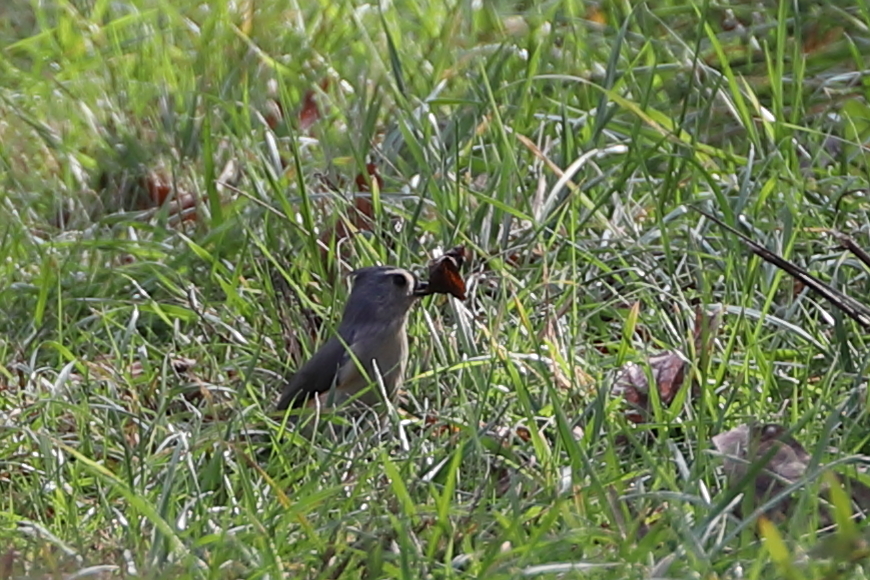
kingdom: Animalia
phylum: Chordata
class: Aves
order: Passeriformes
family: Paridae
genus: Baeolophus
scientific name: Baeolophus bicolor
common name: Tufted titmouse
